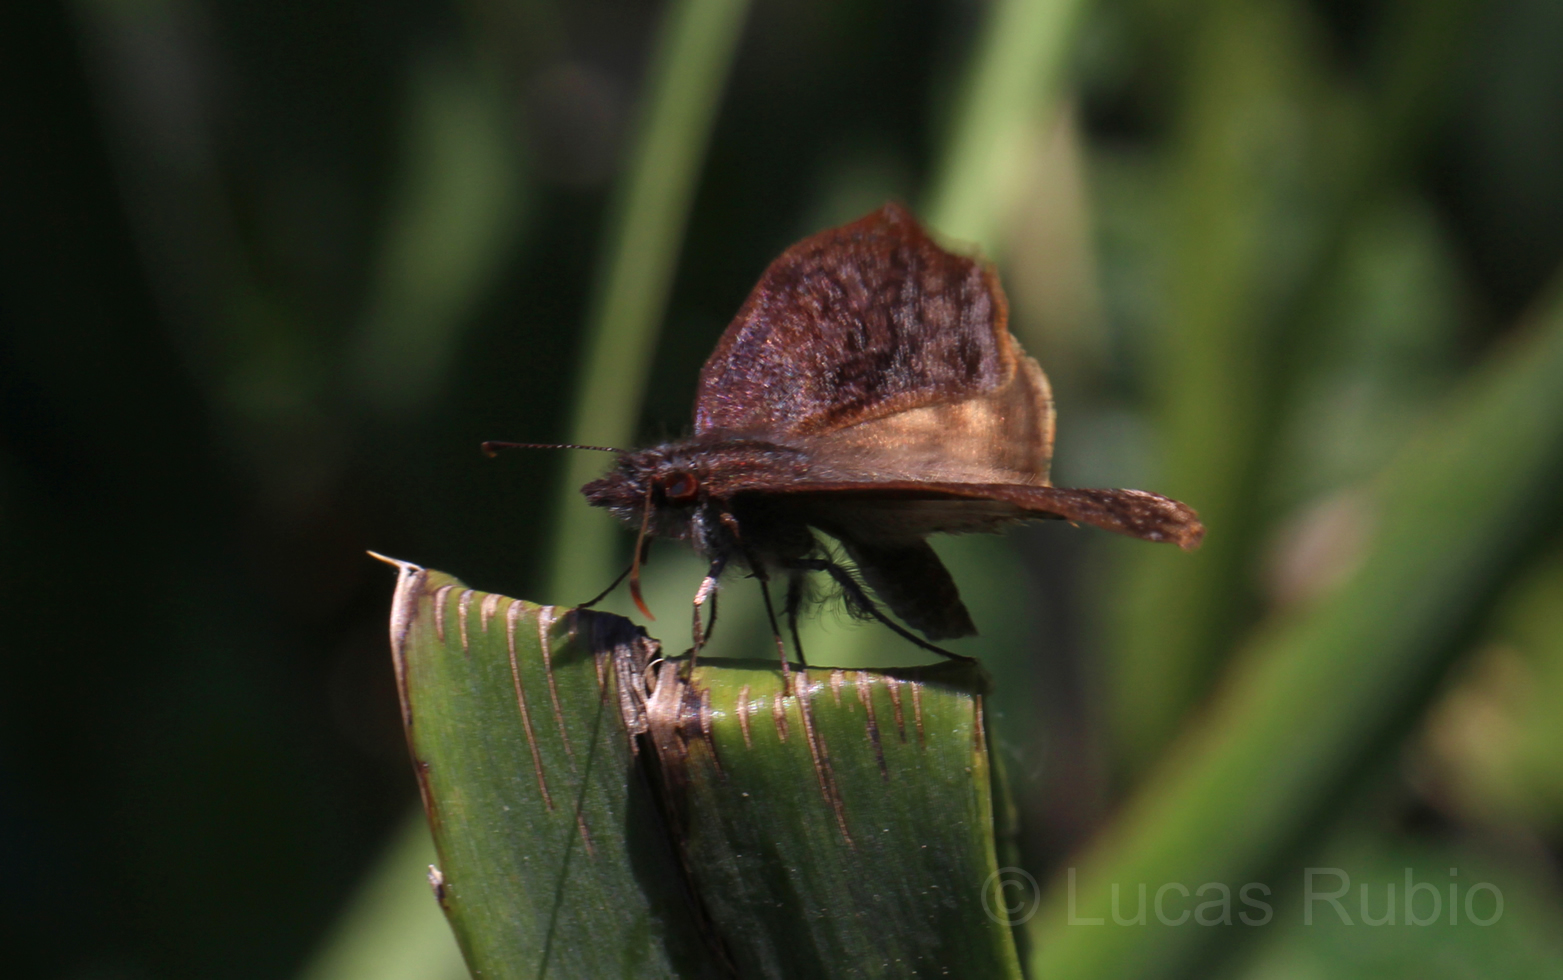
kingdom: Animalia
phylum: Arthropoda
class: Insecta
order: Lepidoptera
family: Hesperiidae
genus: Theagenes
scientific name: Theagenes dichrous
